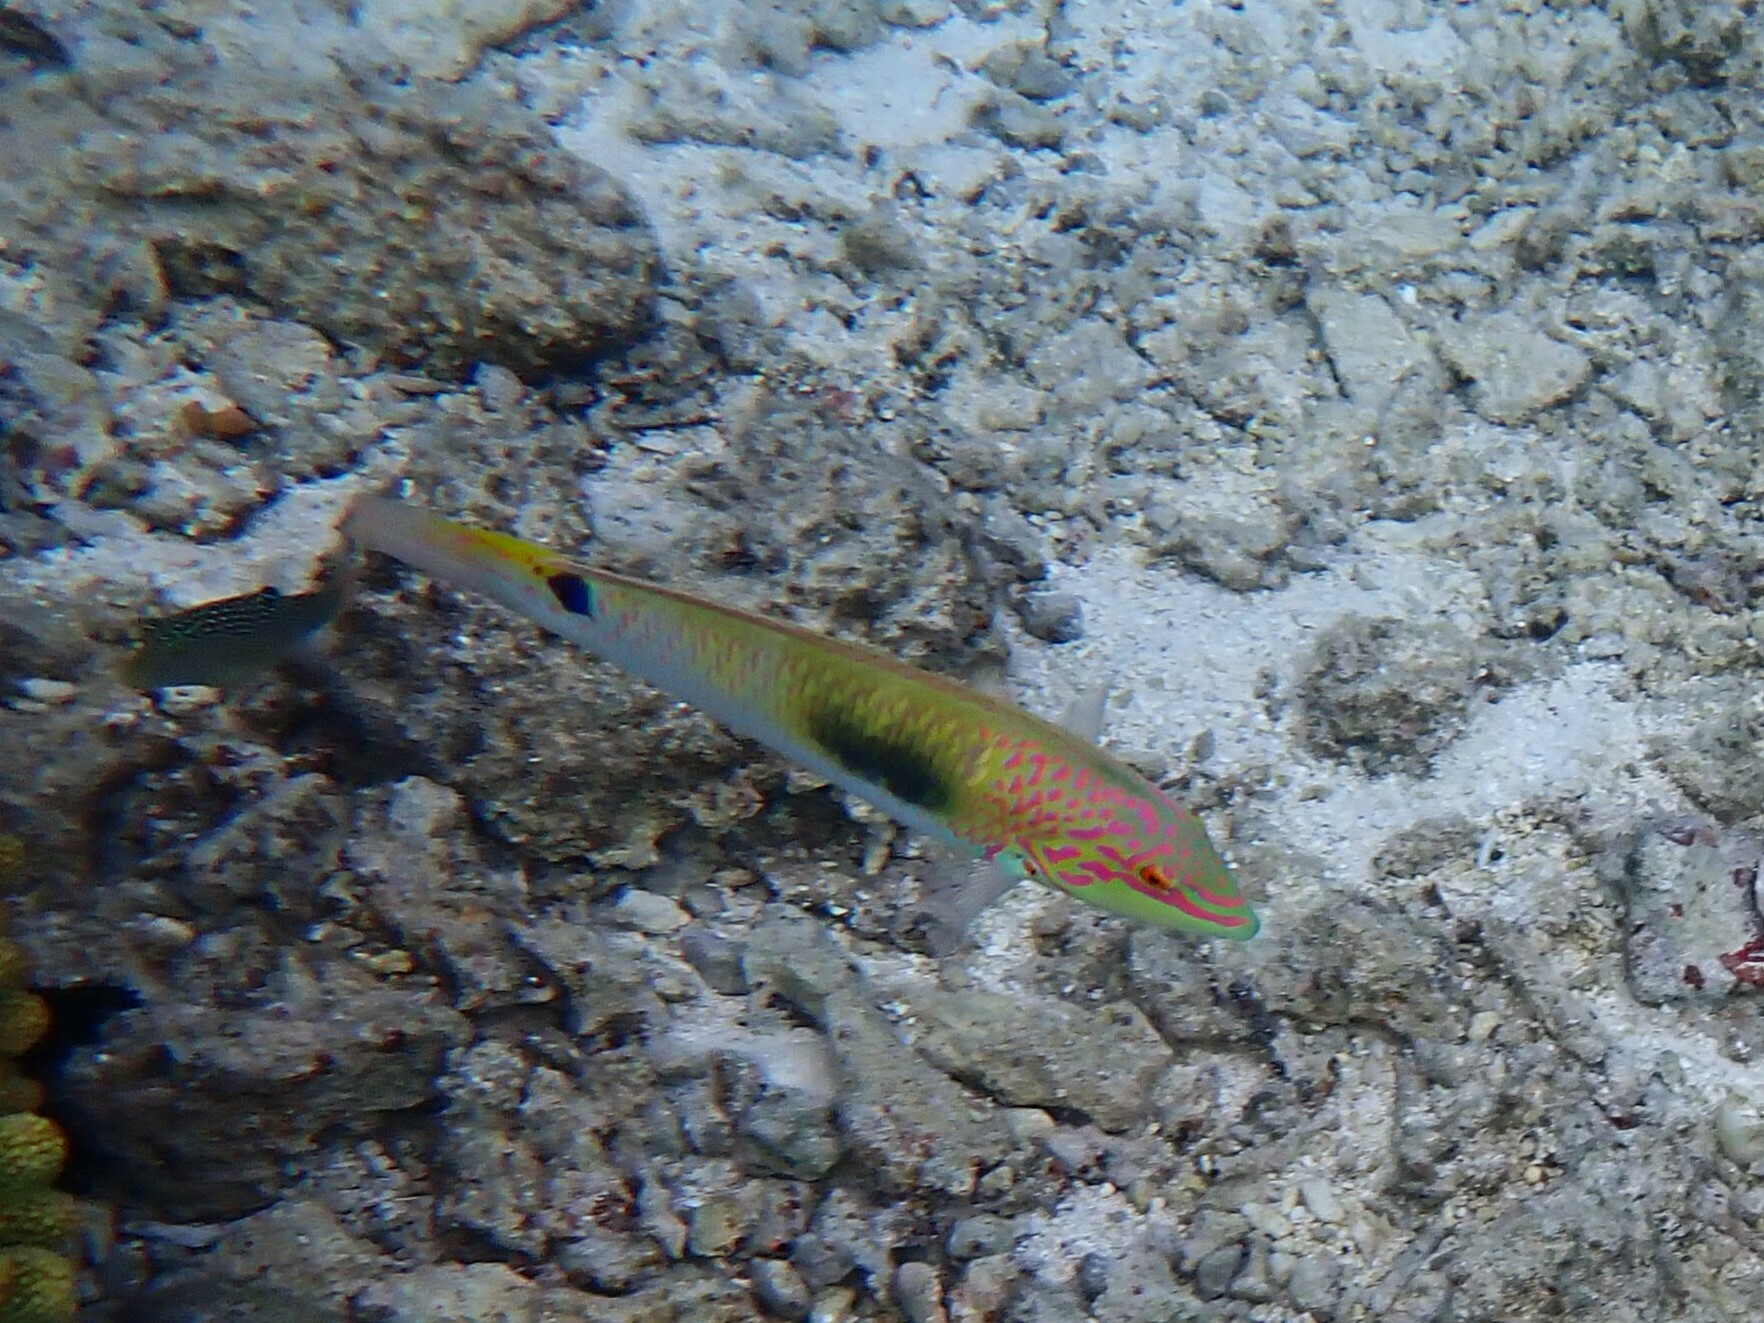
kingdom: Animalia
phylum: Chordata
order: Perciformes
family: Labridae
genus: Halichoeres
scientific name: Halichoeres trimaculatus
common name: Three-spot wrasse
